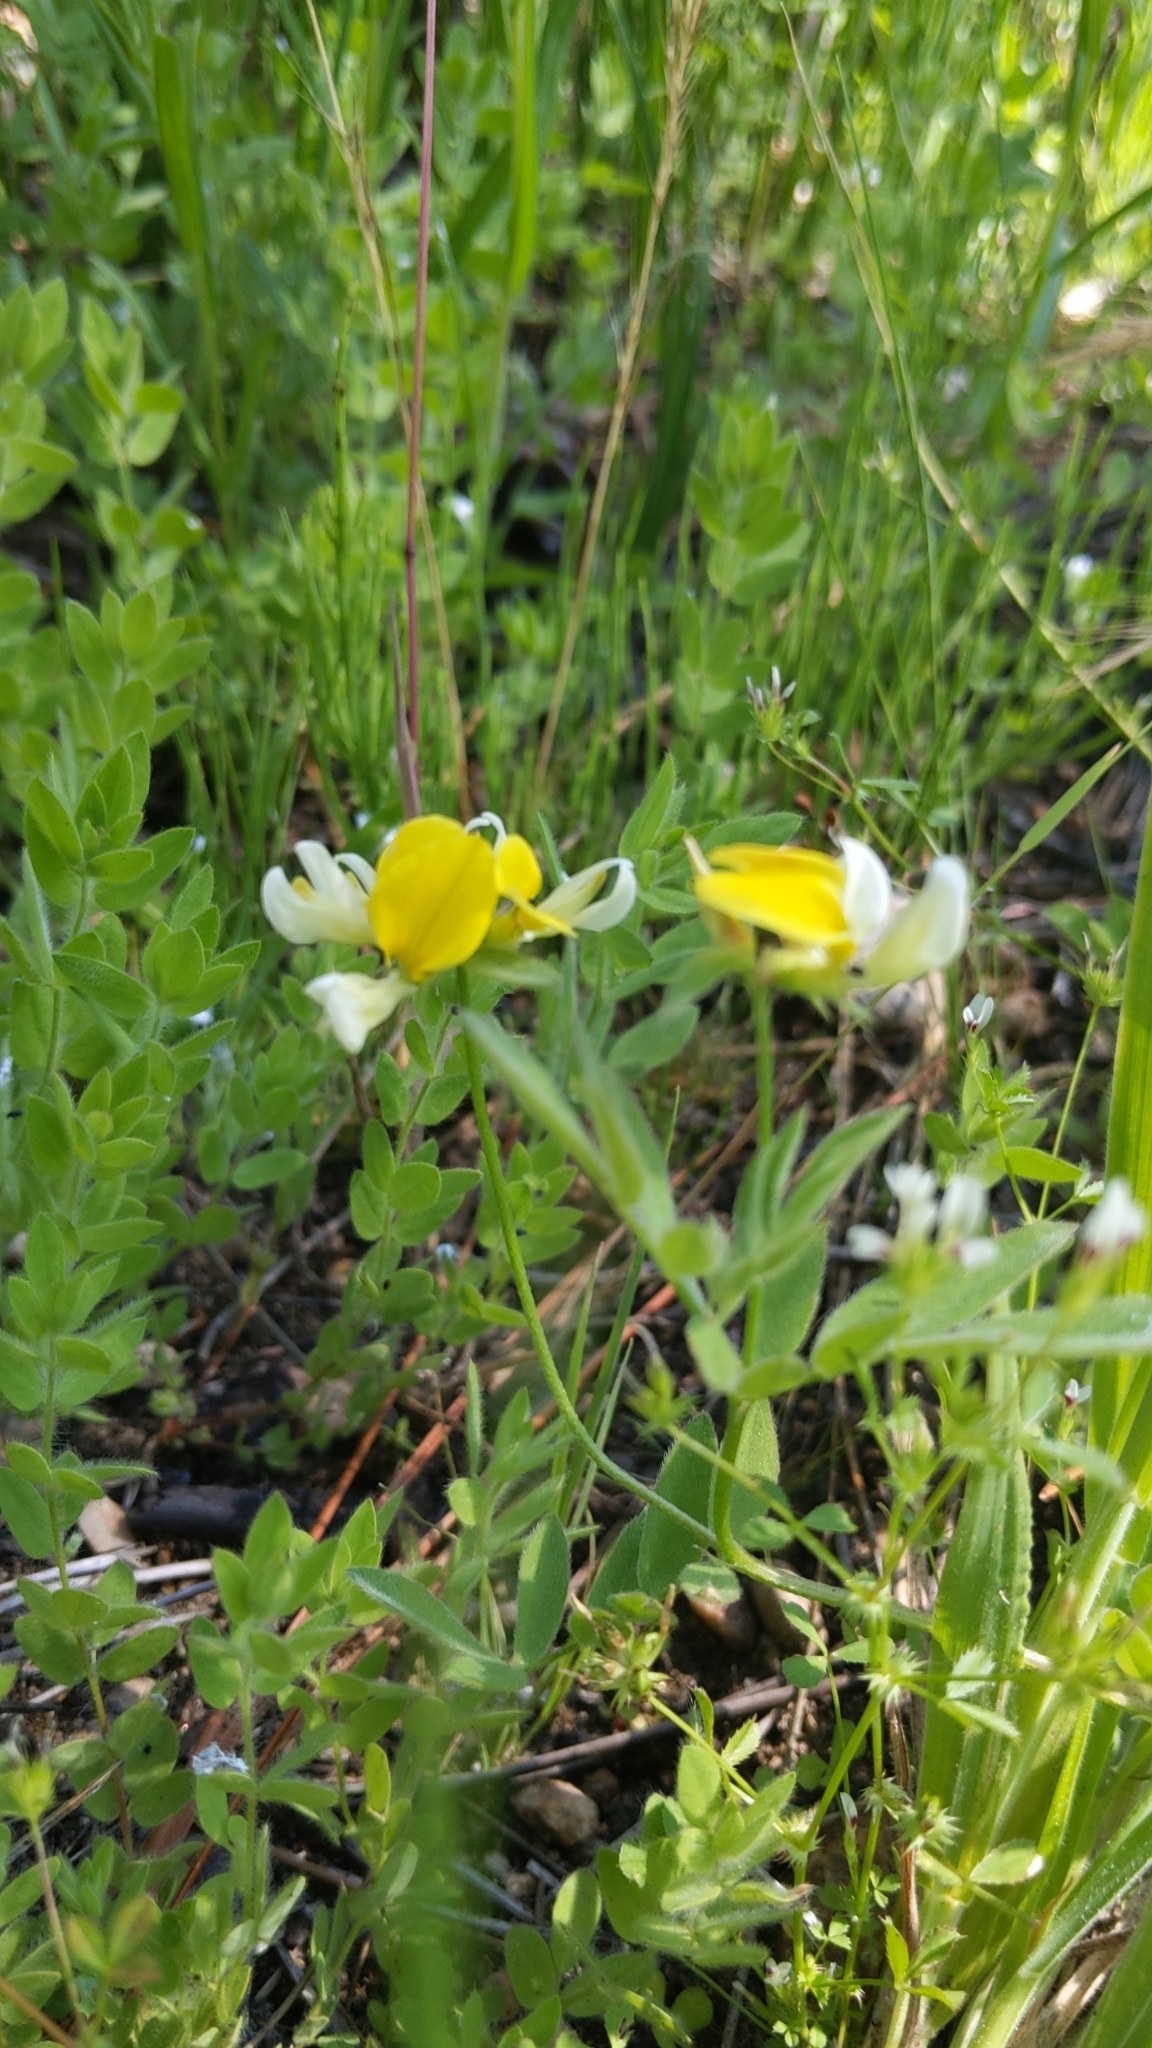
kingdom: Plantae
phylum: Tracheophyta
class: Magnoliopsida
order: Fabales
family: Fabaceae
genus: Hosackia
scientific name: Hosackia oblongifolia
